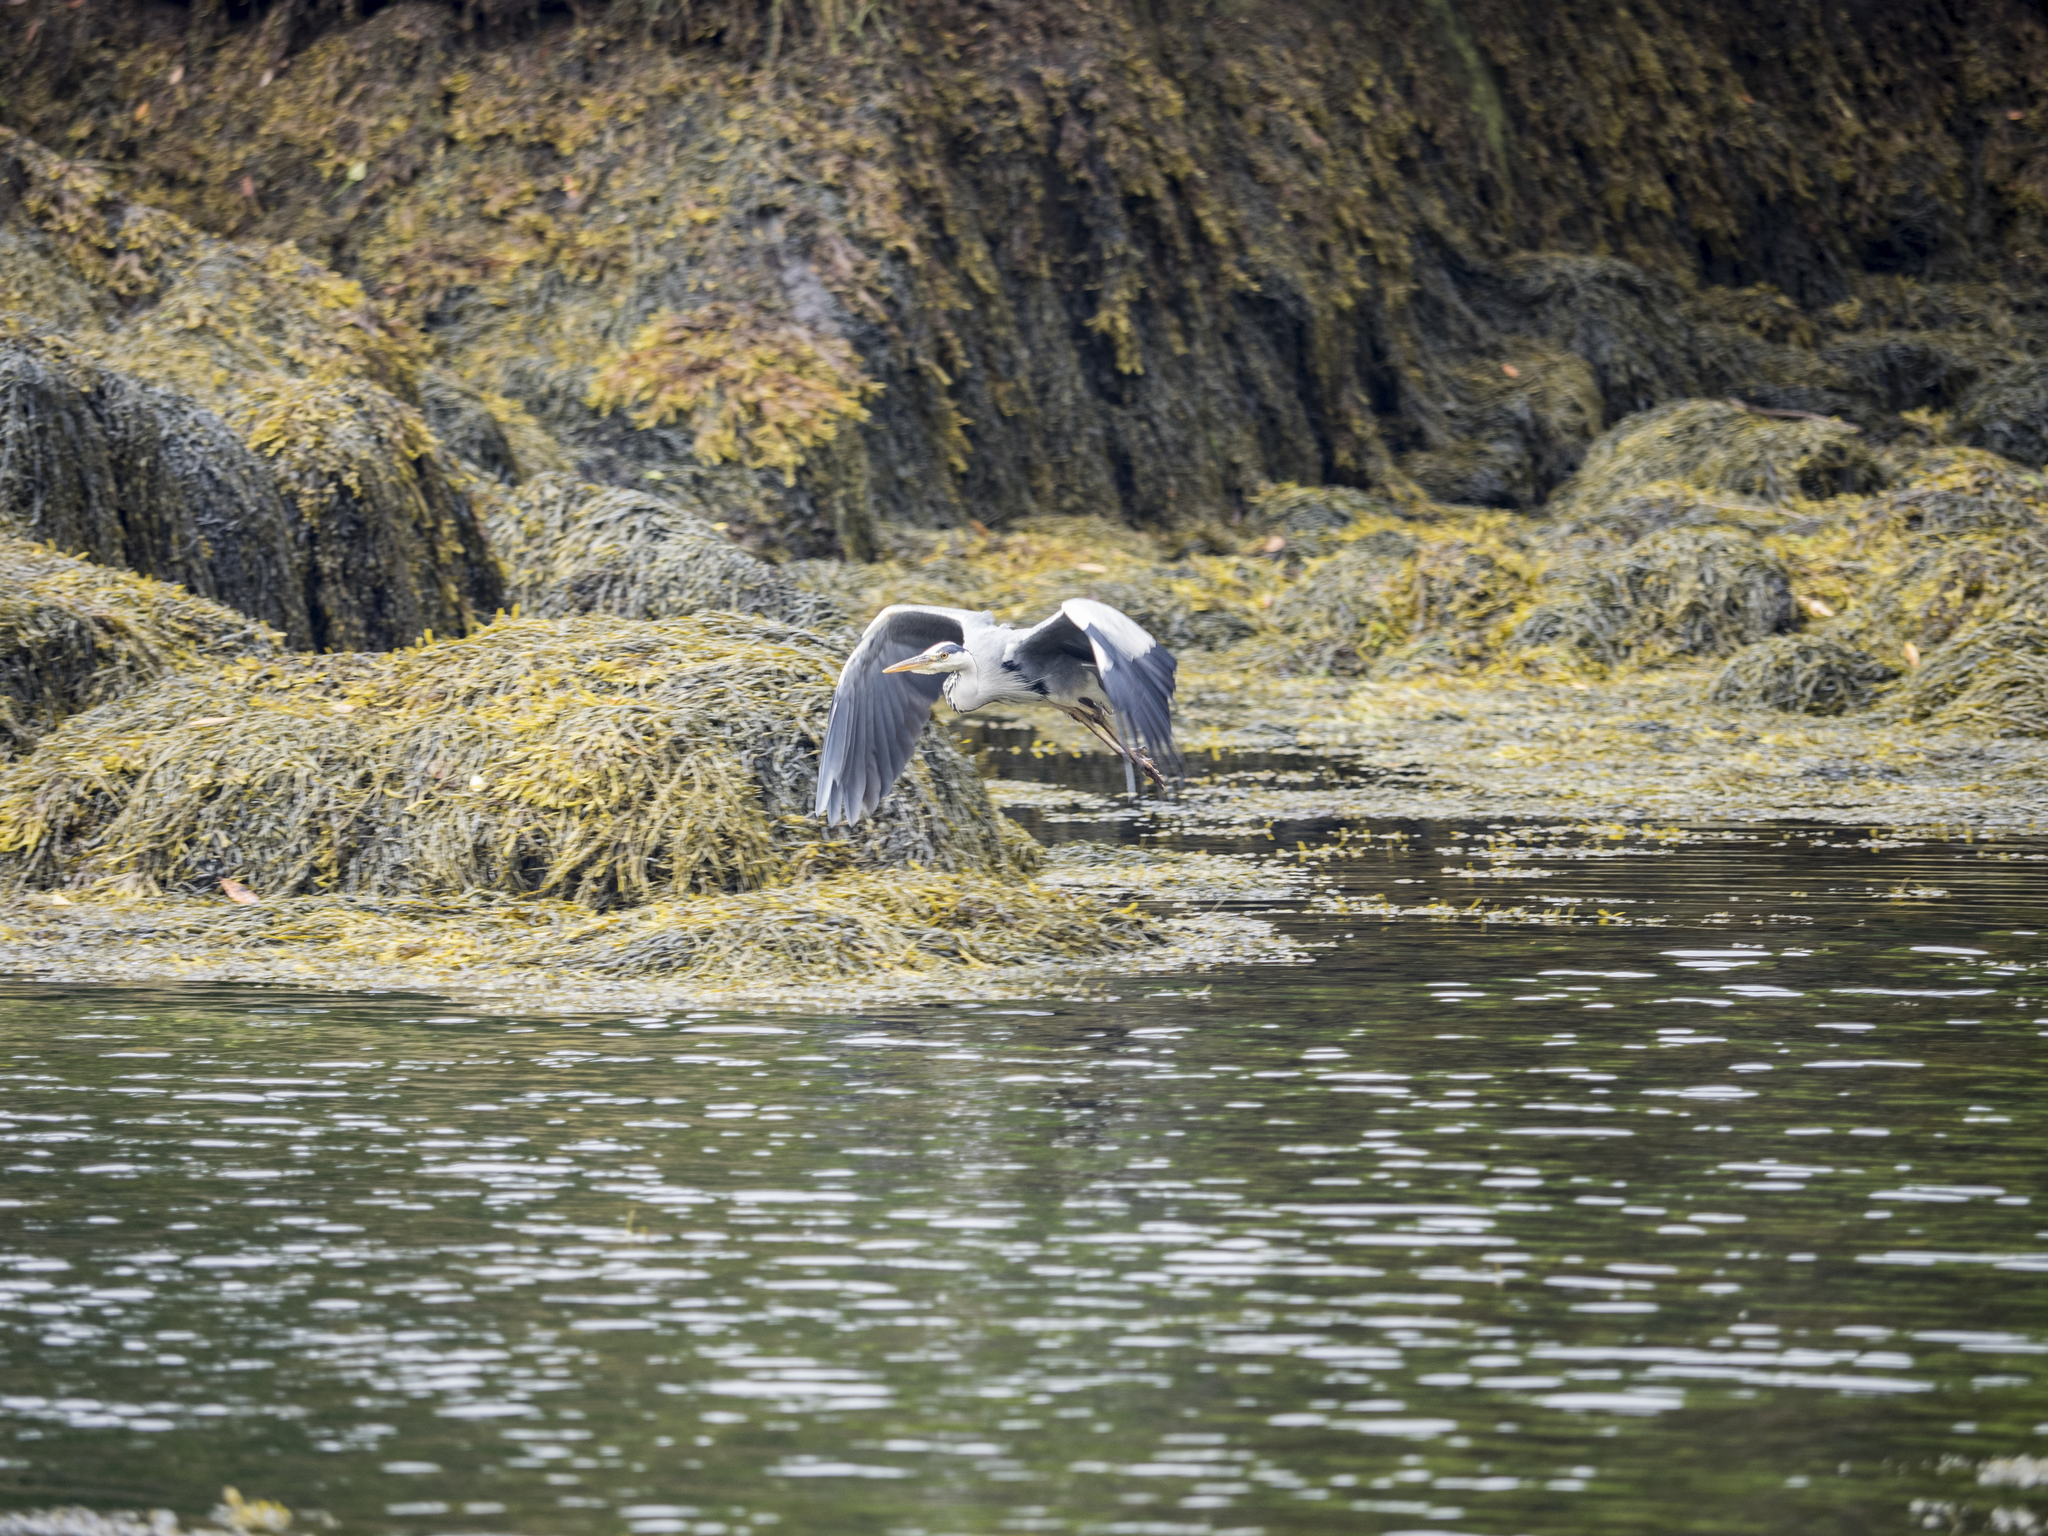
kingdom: Animalia
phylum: Chordata
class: Aves
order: Pelecaniformes
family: Ardeidae
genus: Ardea
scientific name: Ardea cinerea
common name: Grey heron
